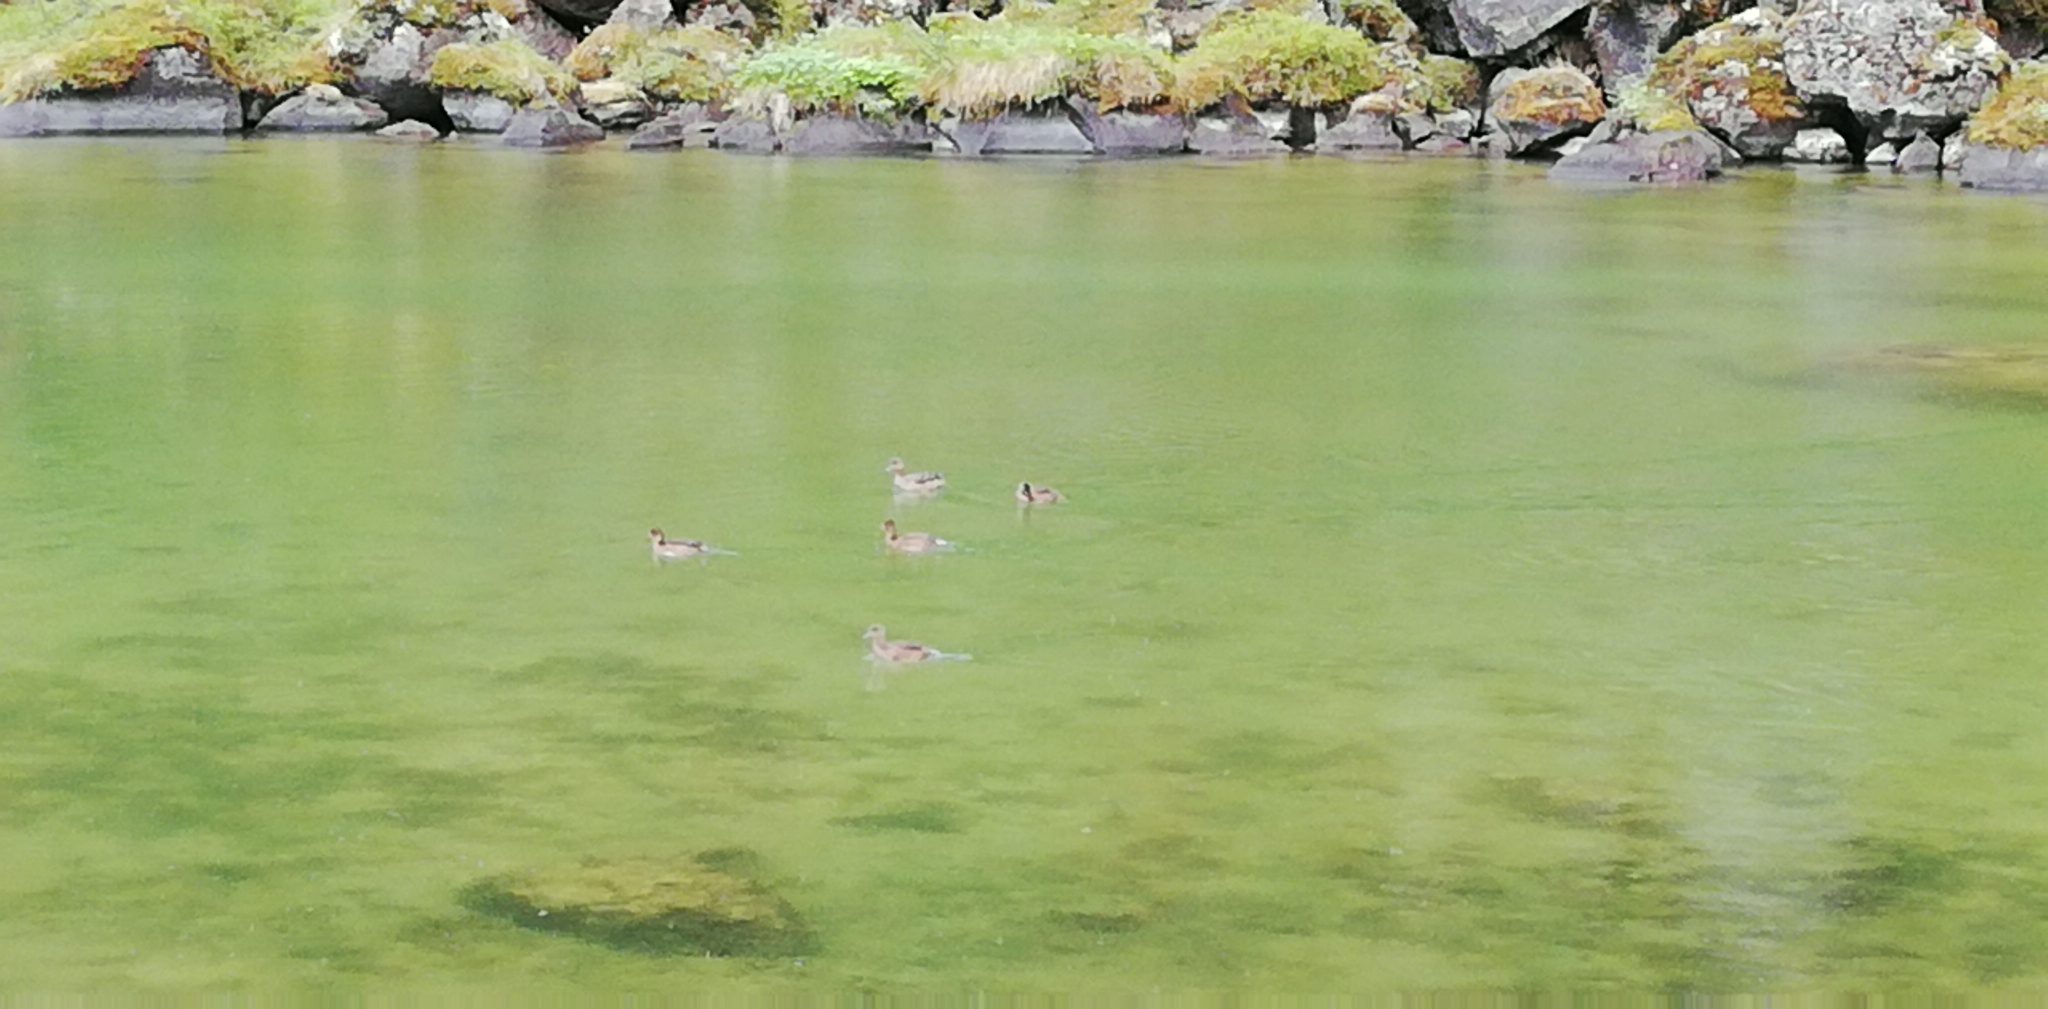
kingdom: Animalia
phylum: Chordata
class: Aves
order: Anseriformes
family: Anatidae
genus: Mareca
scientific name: Mareca penelope
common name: Eurasian wigeon
